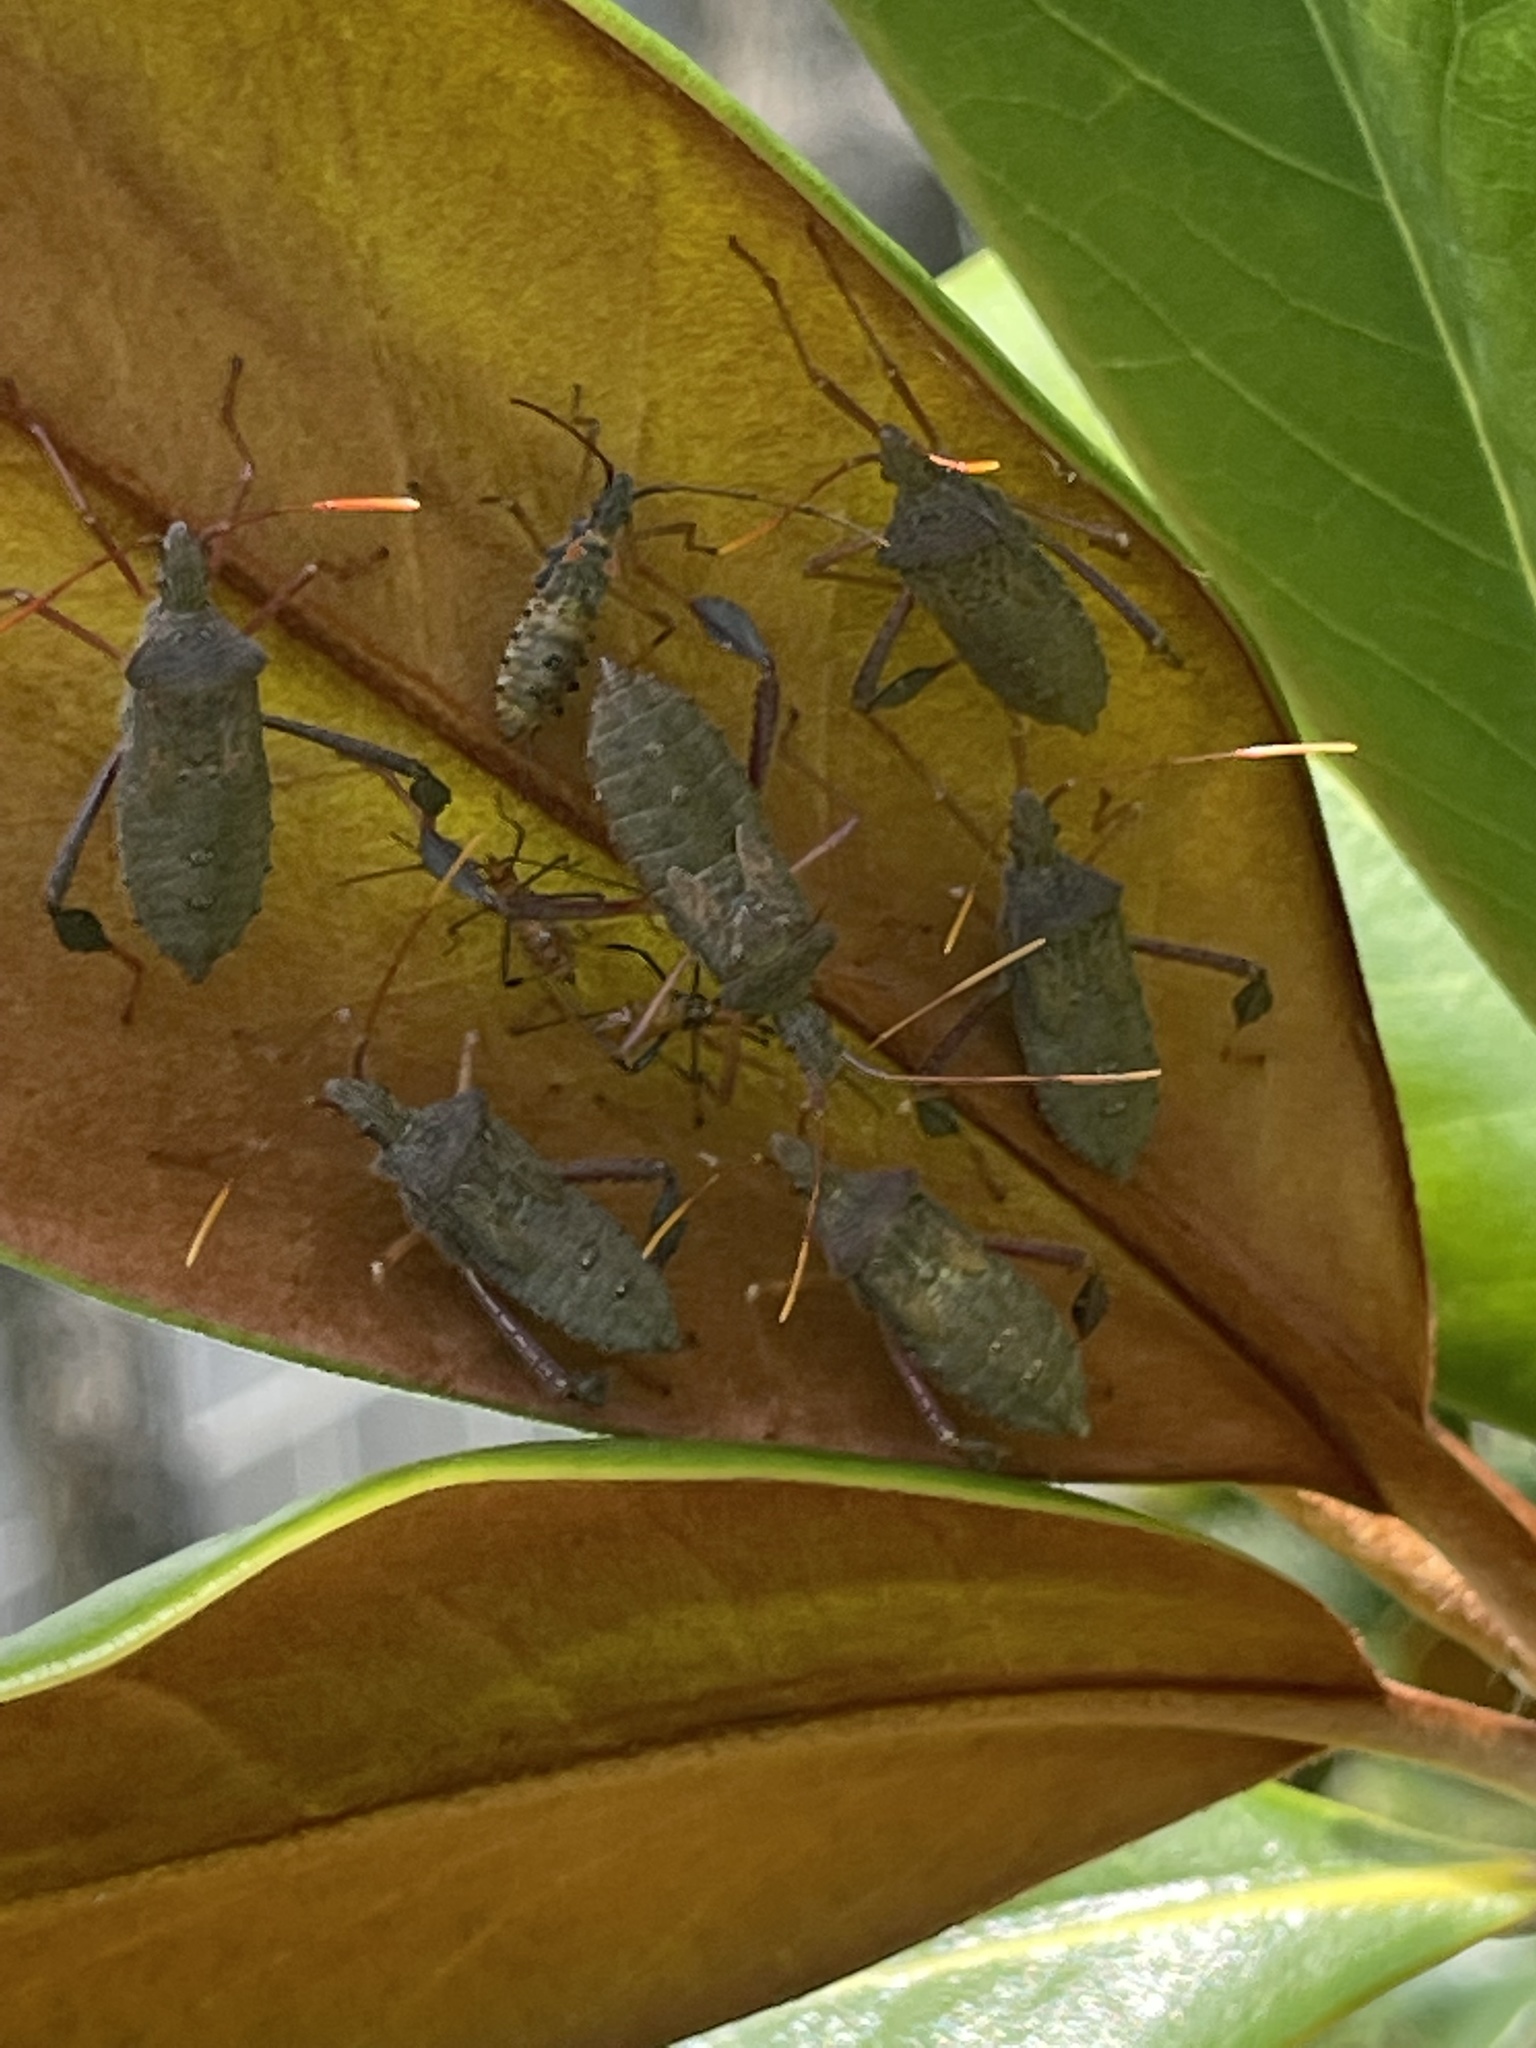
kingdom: Animalia
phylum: Arthropoda
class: Insecta
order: Hemiptera
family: Coreidae
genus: Leptoglossus
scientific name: Leptoglossus fulvicornis
